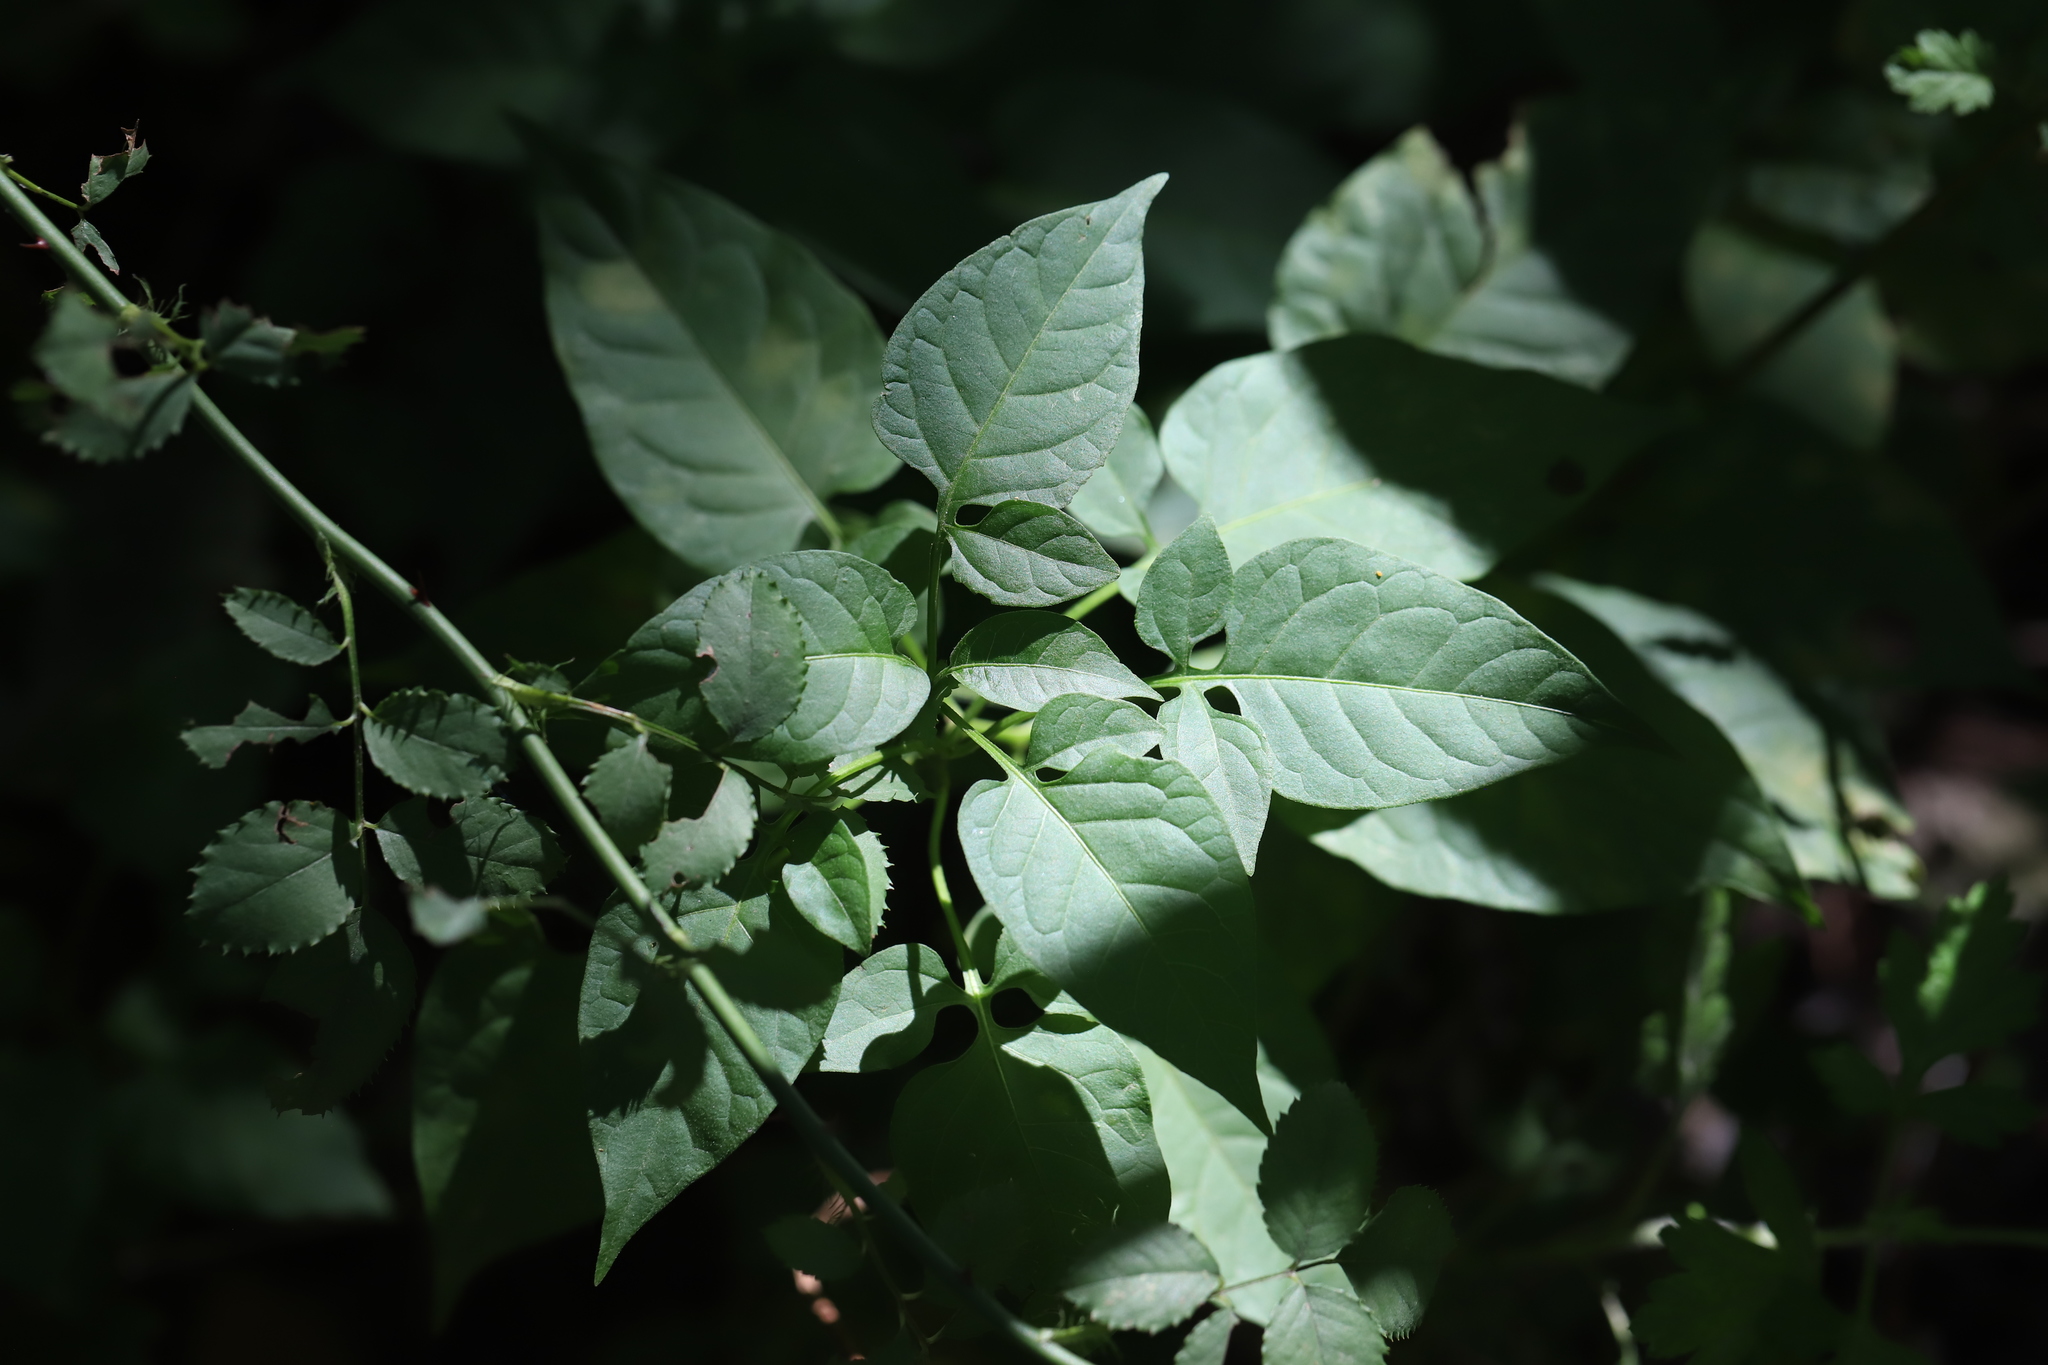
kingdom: Plantae
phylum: Tracheophyta
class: Magnoliopsida
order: Solanales
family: Solanaceae
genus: Solanum
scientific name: Solanum dulcamara
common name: Climbing nightshade
